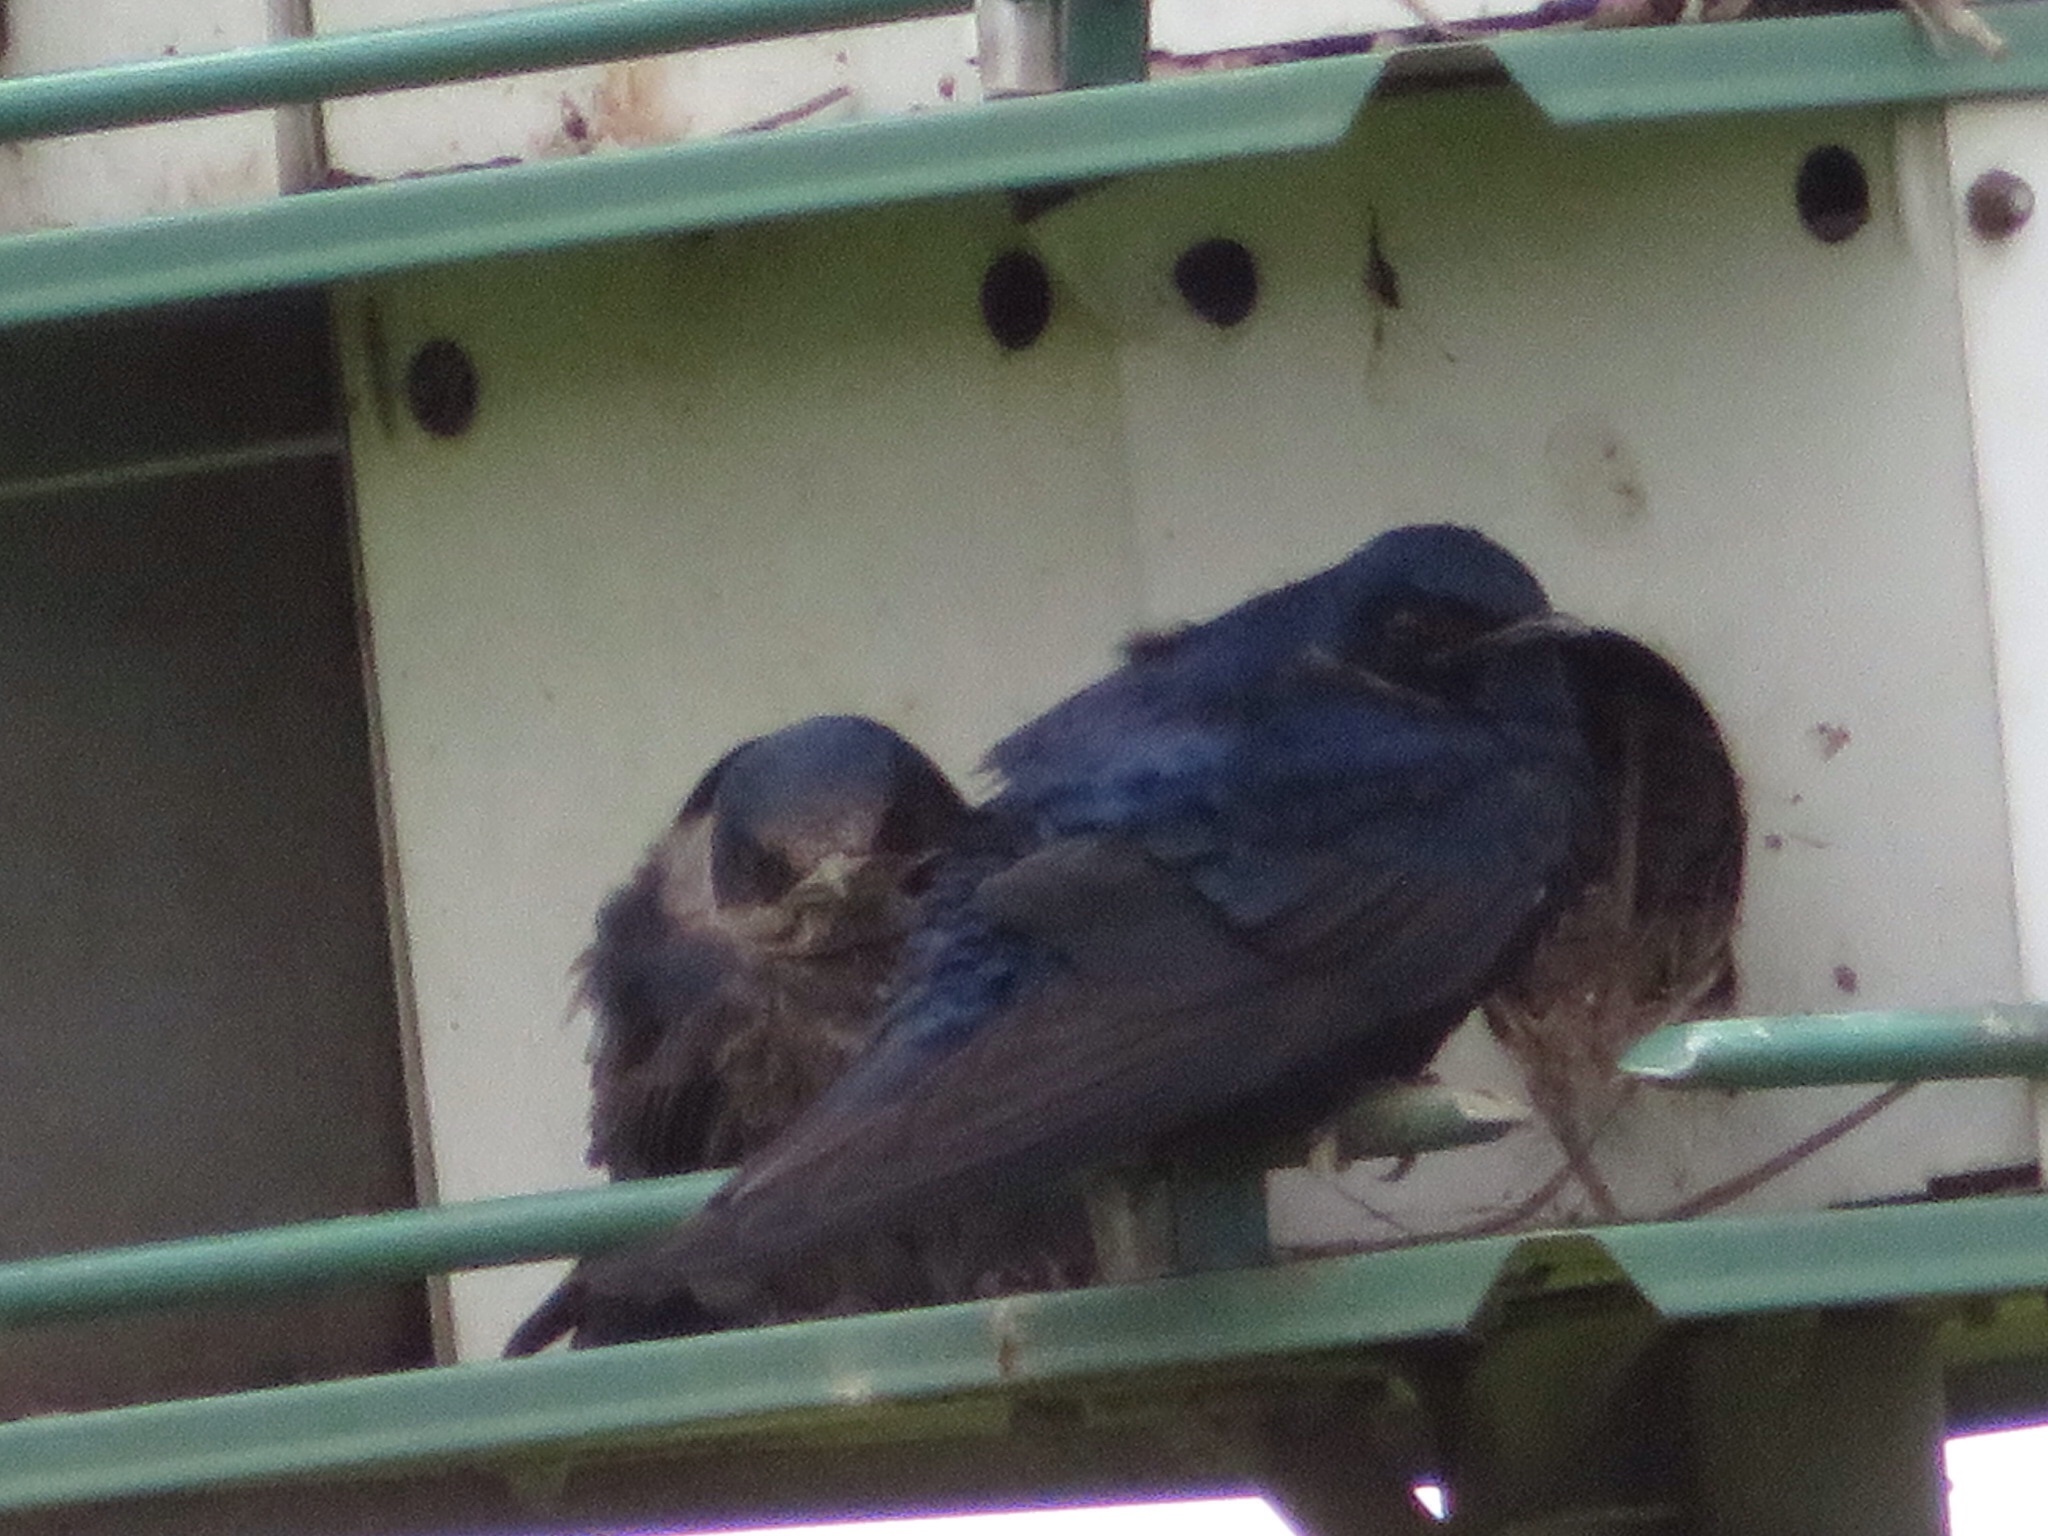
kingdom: Animalia
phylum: Chordata
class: Aves
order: Passeriformes
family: Hirundinidae
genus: Progne
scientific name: Progne subis
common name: Purple martin
